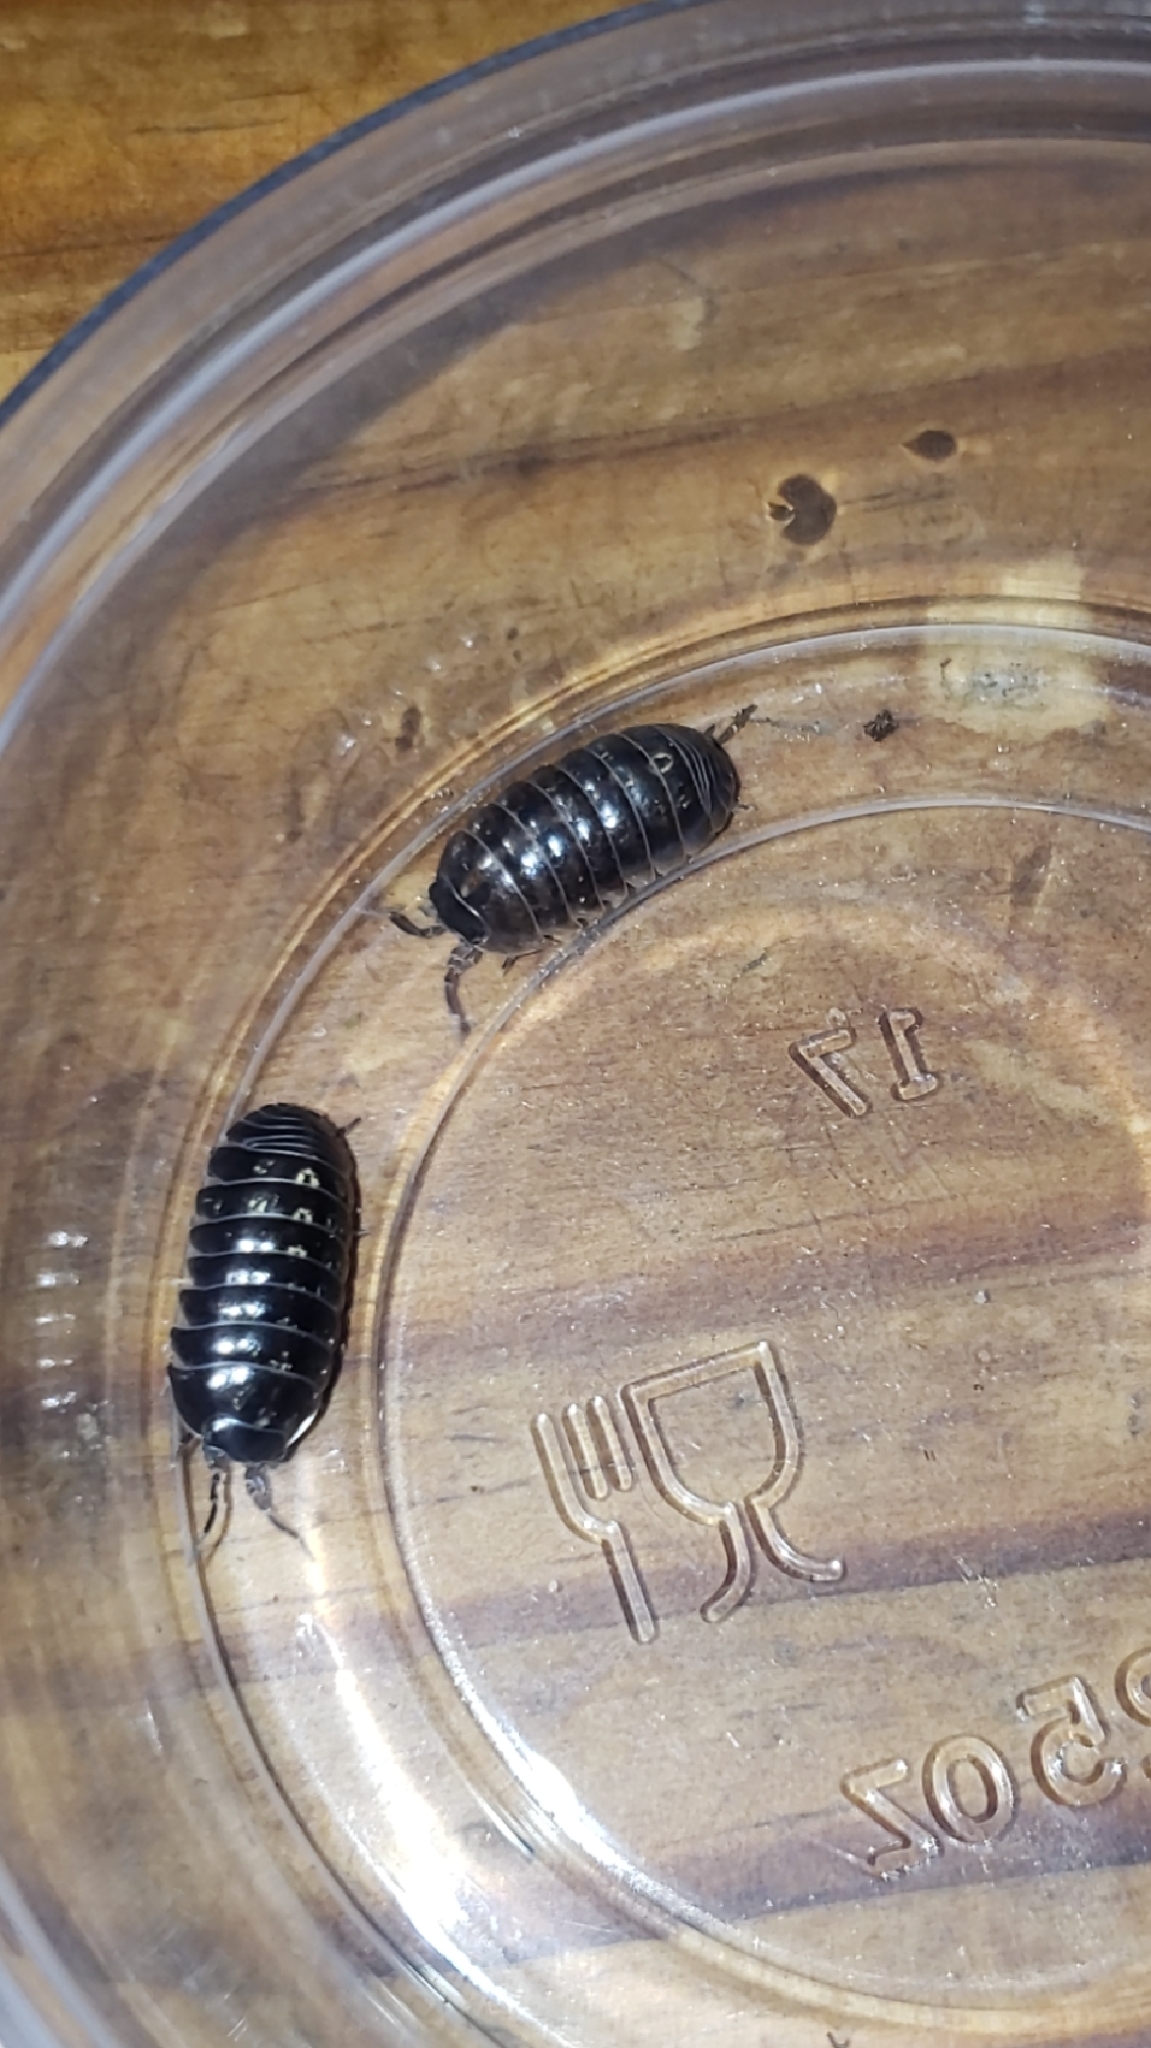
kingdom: Animalia
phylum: Arthropoda
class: Malacostraca
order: Isopoda
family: Armadillidiidae
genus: Armadillidium
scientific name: Armadillidium vulgare
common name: Common pill woodlouse
